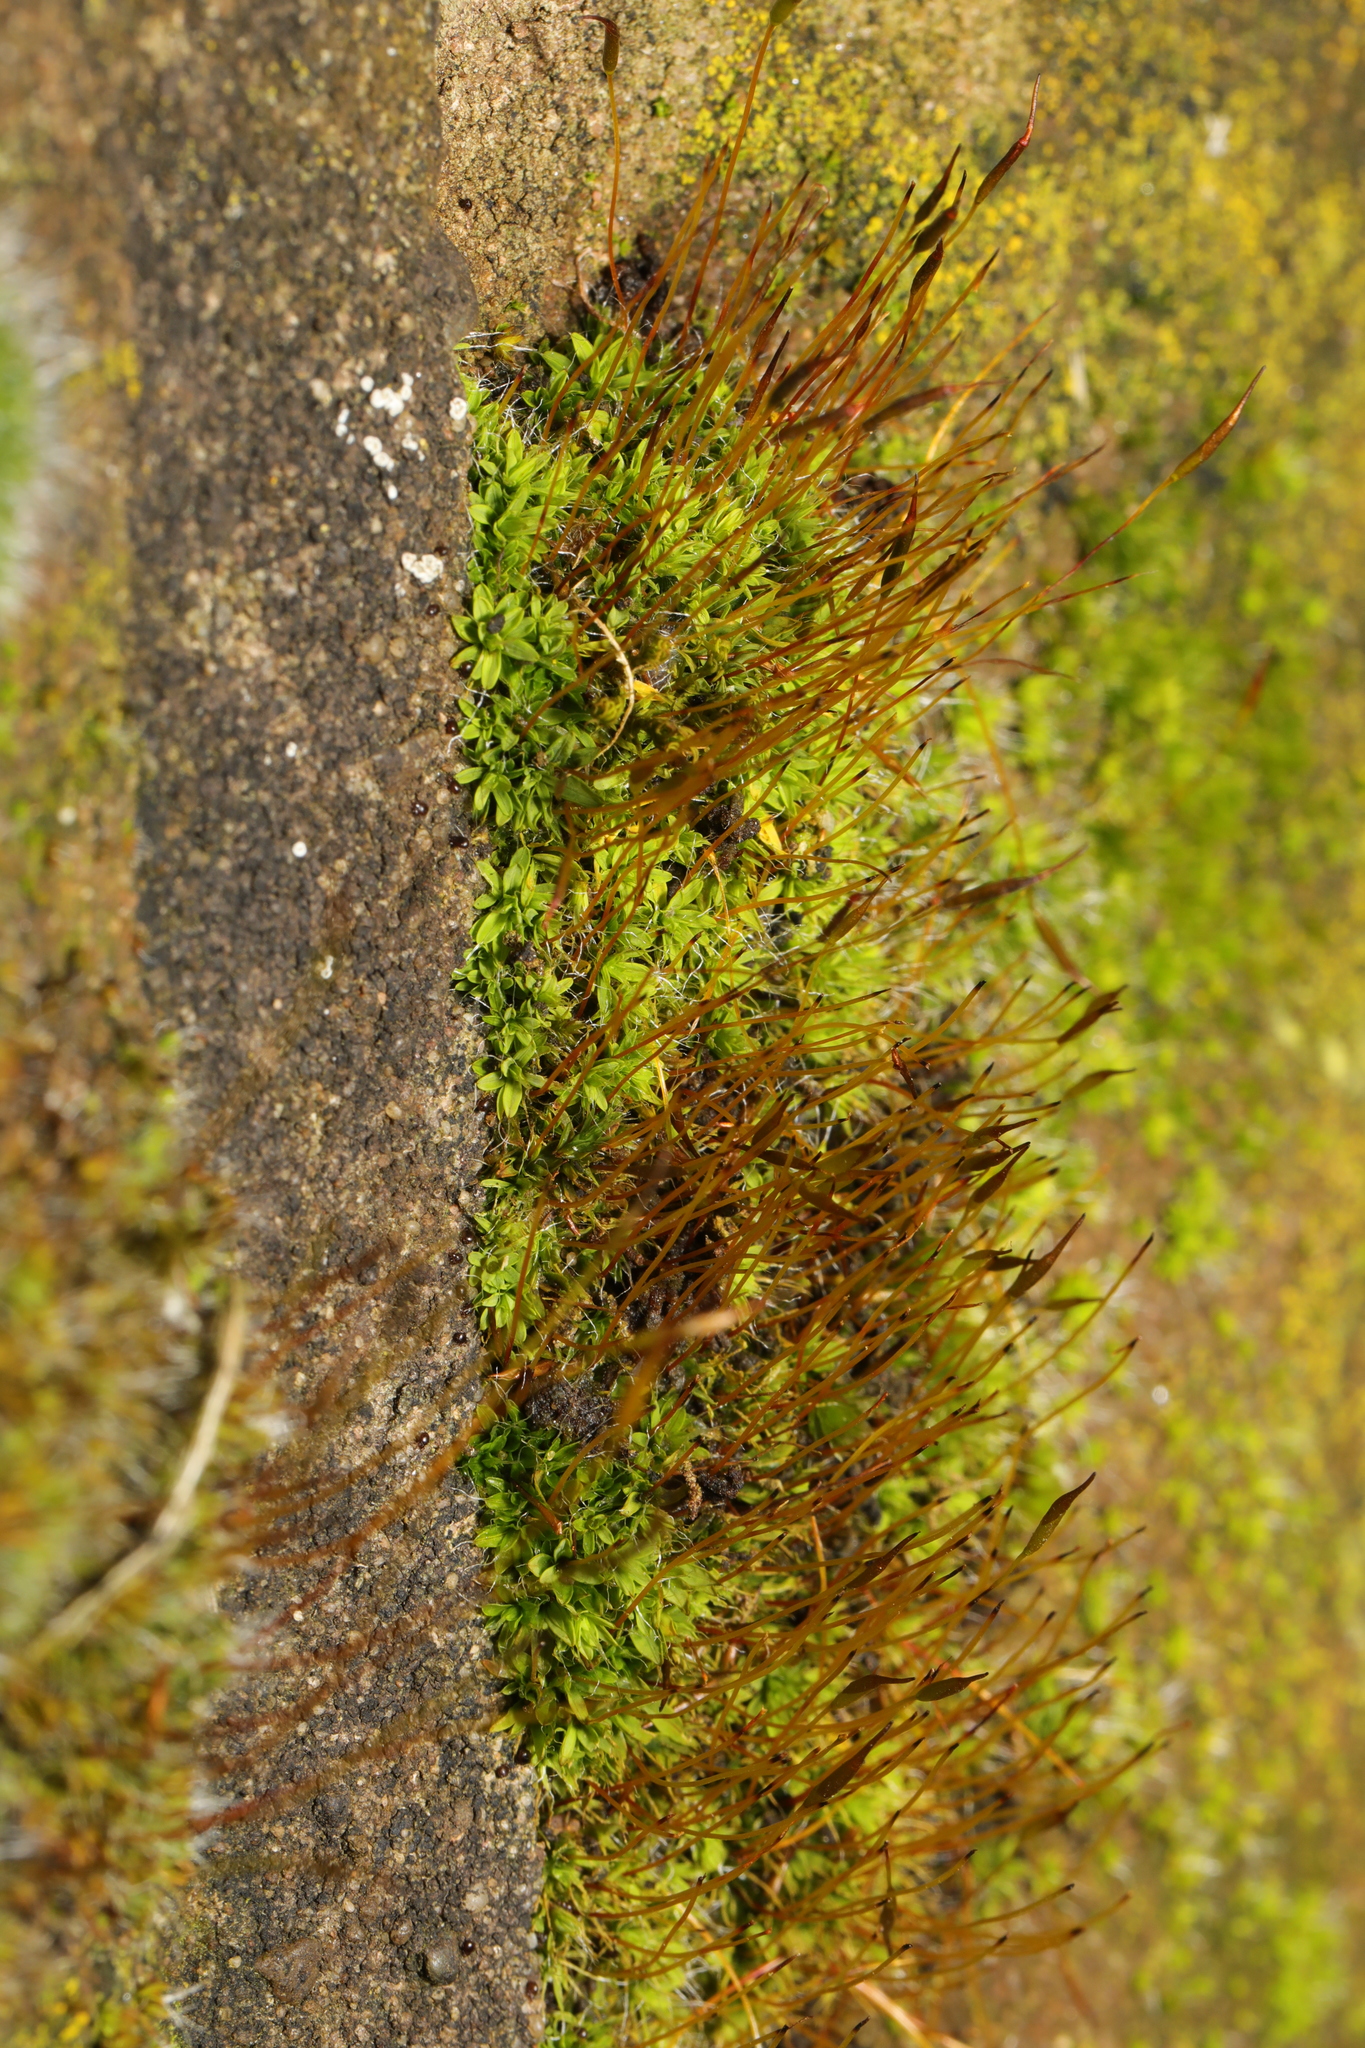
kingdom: Plantae
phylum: Bryophyta
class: Bryopsida
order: Pottiales
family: Pottiaceae
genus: Tortula
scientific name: Tortula muralis
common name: Wall screw-moss
